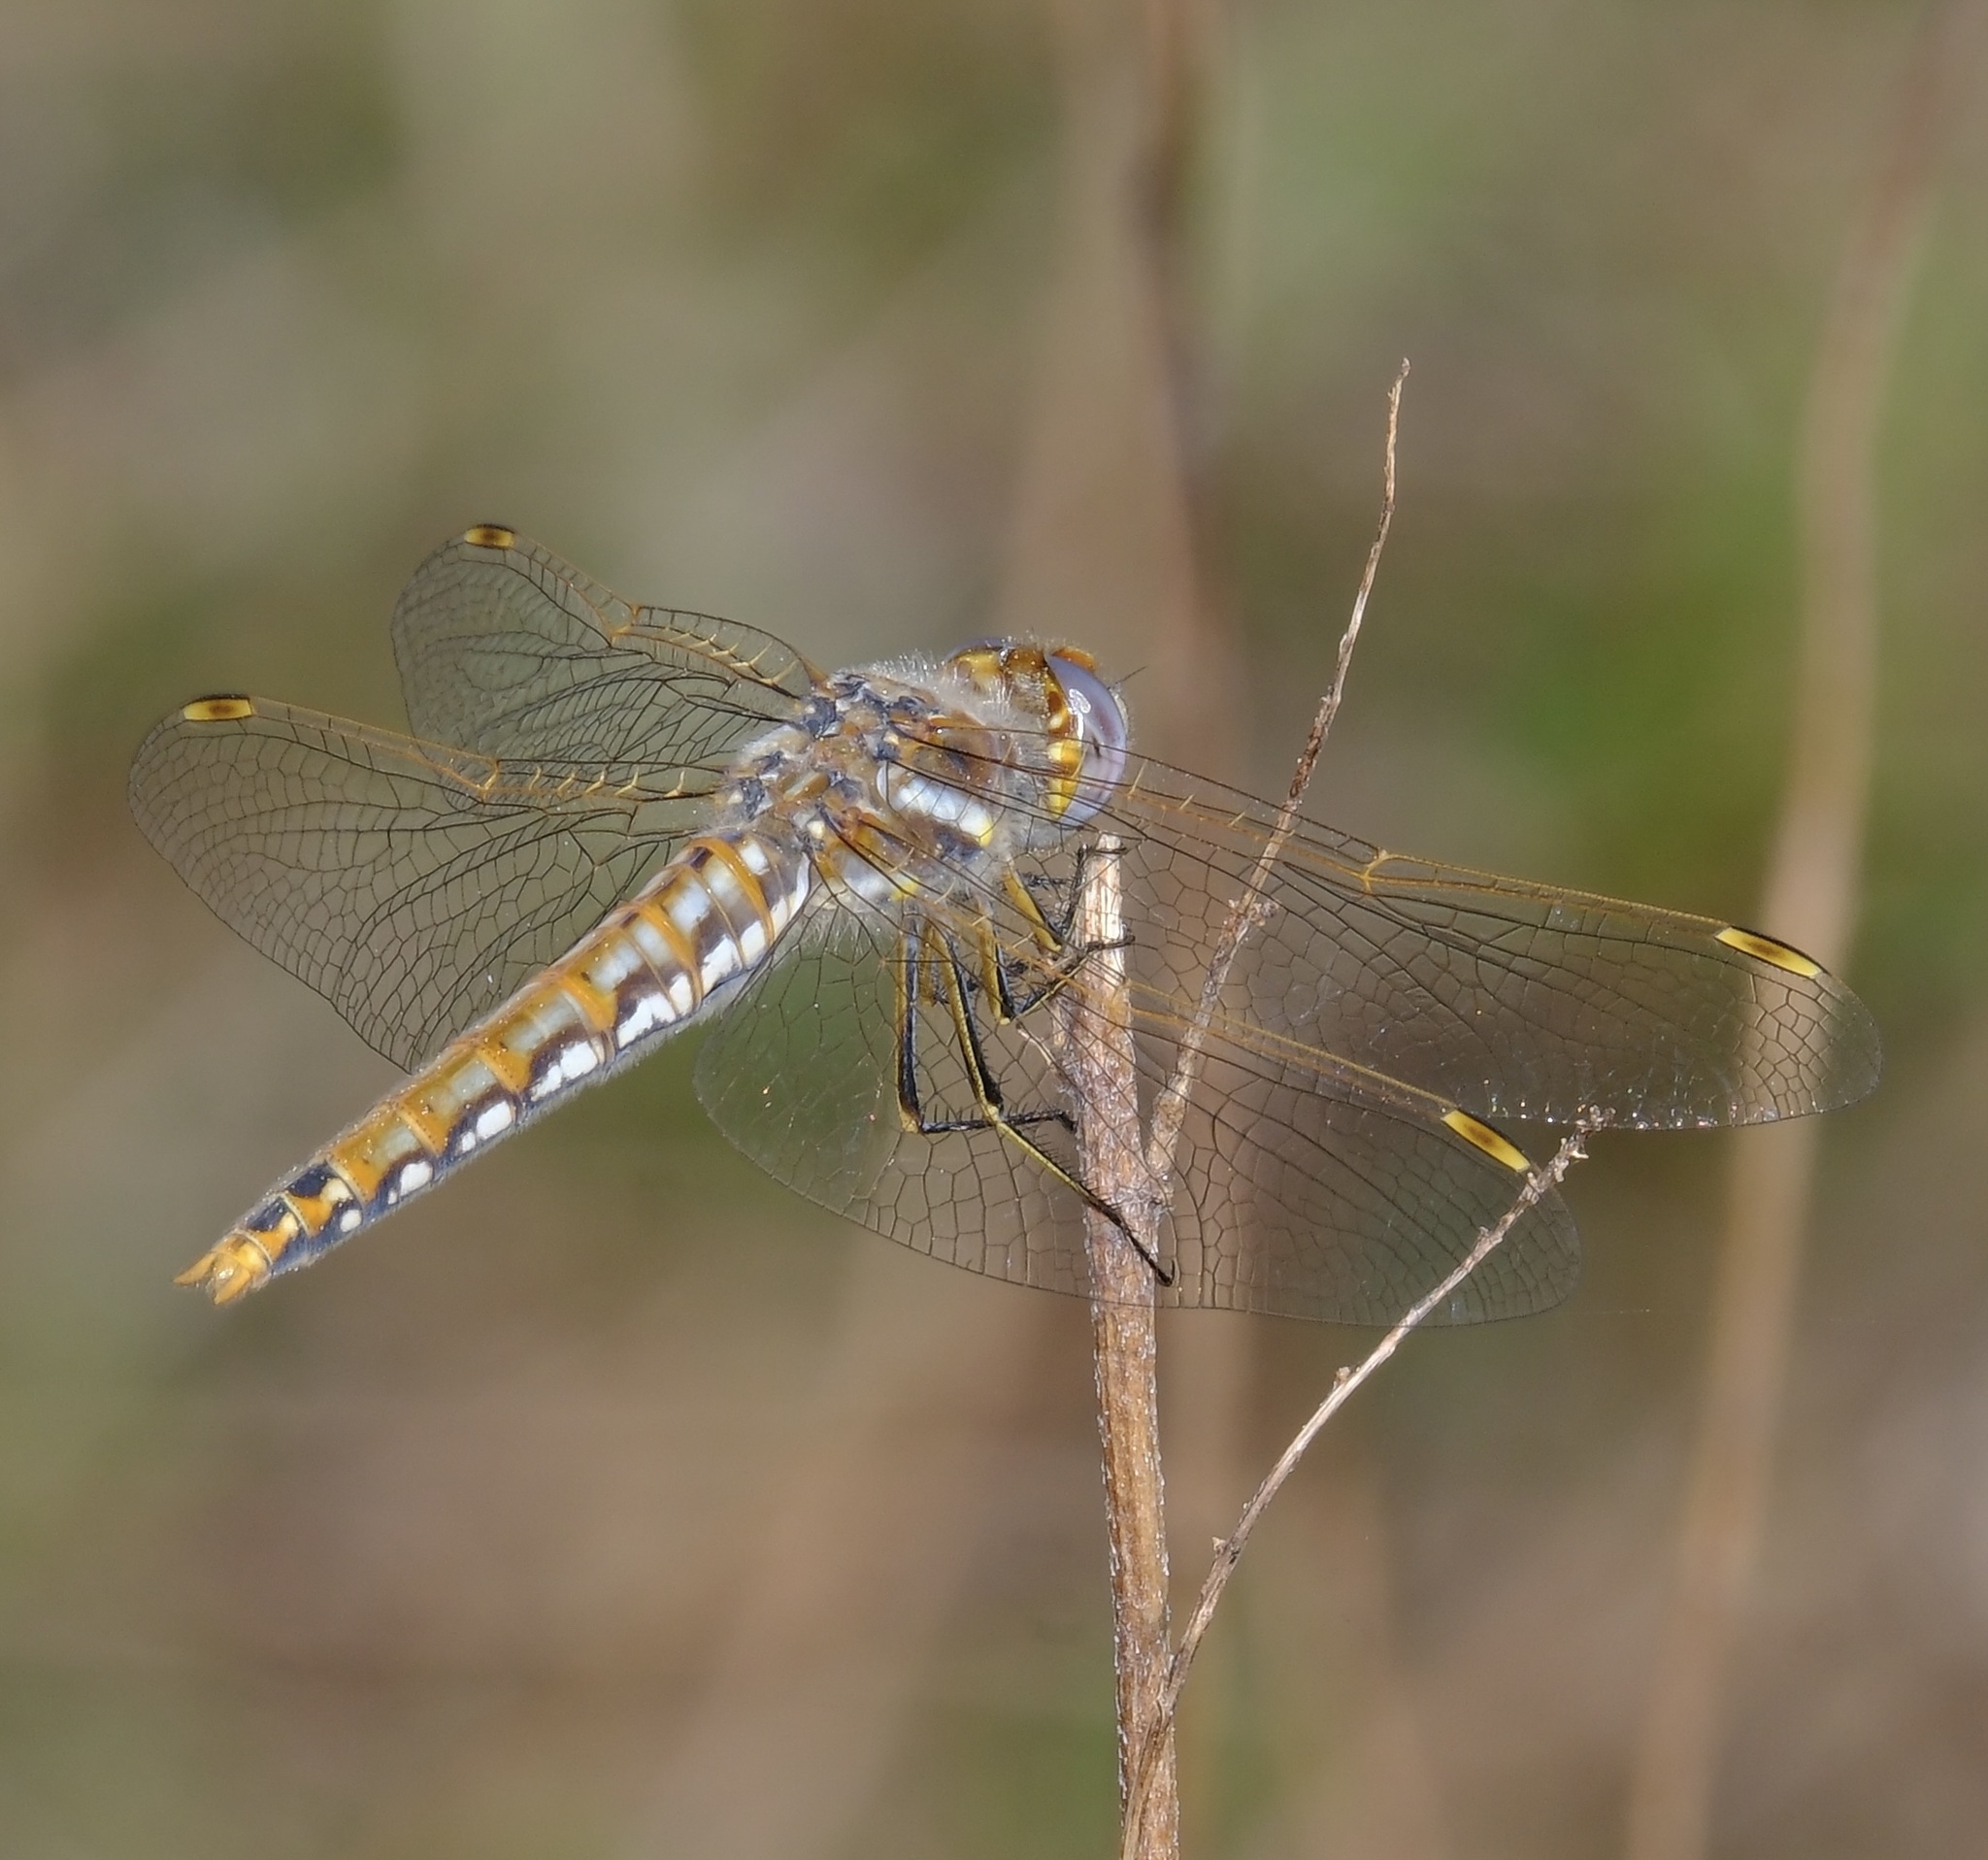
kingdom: Animalia
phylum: Arthropoda
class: Insecta
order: Odonata
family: Libellulidae
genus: Sympetrum
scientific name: Sympetrum corruptum
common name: Variegated meadowhawk
